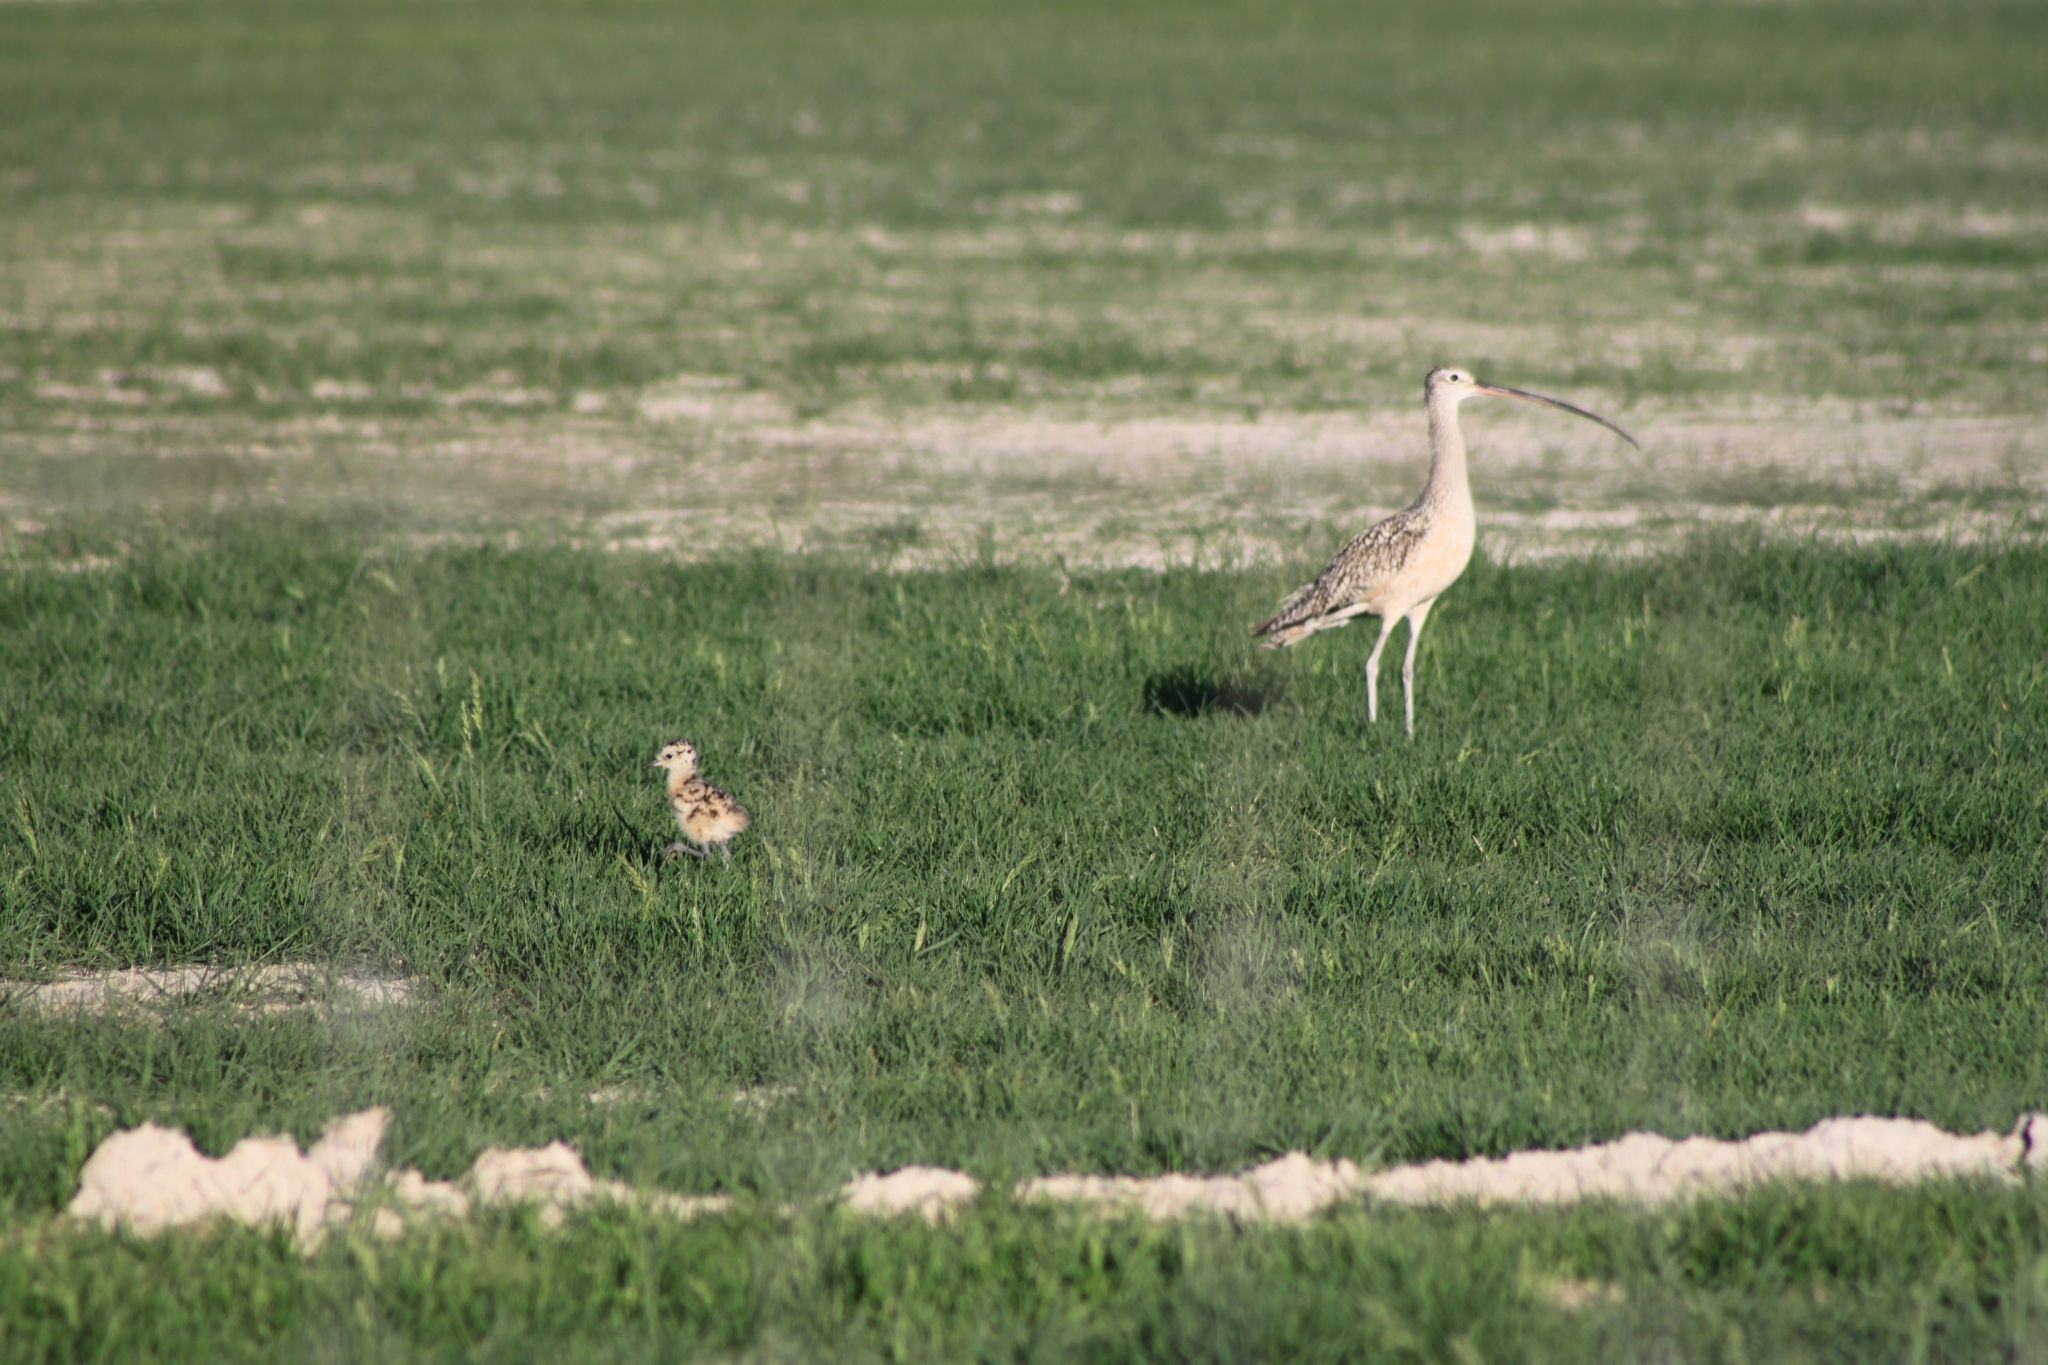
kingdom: Animalia
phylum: Chordata
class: Aves
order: Charadriiformes
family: Scolopacidae
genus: Numenius
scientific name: Numenius americanus
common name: Long-billed curlew
